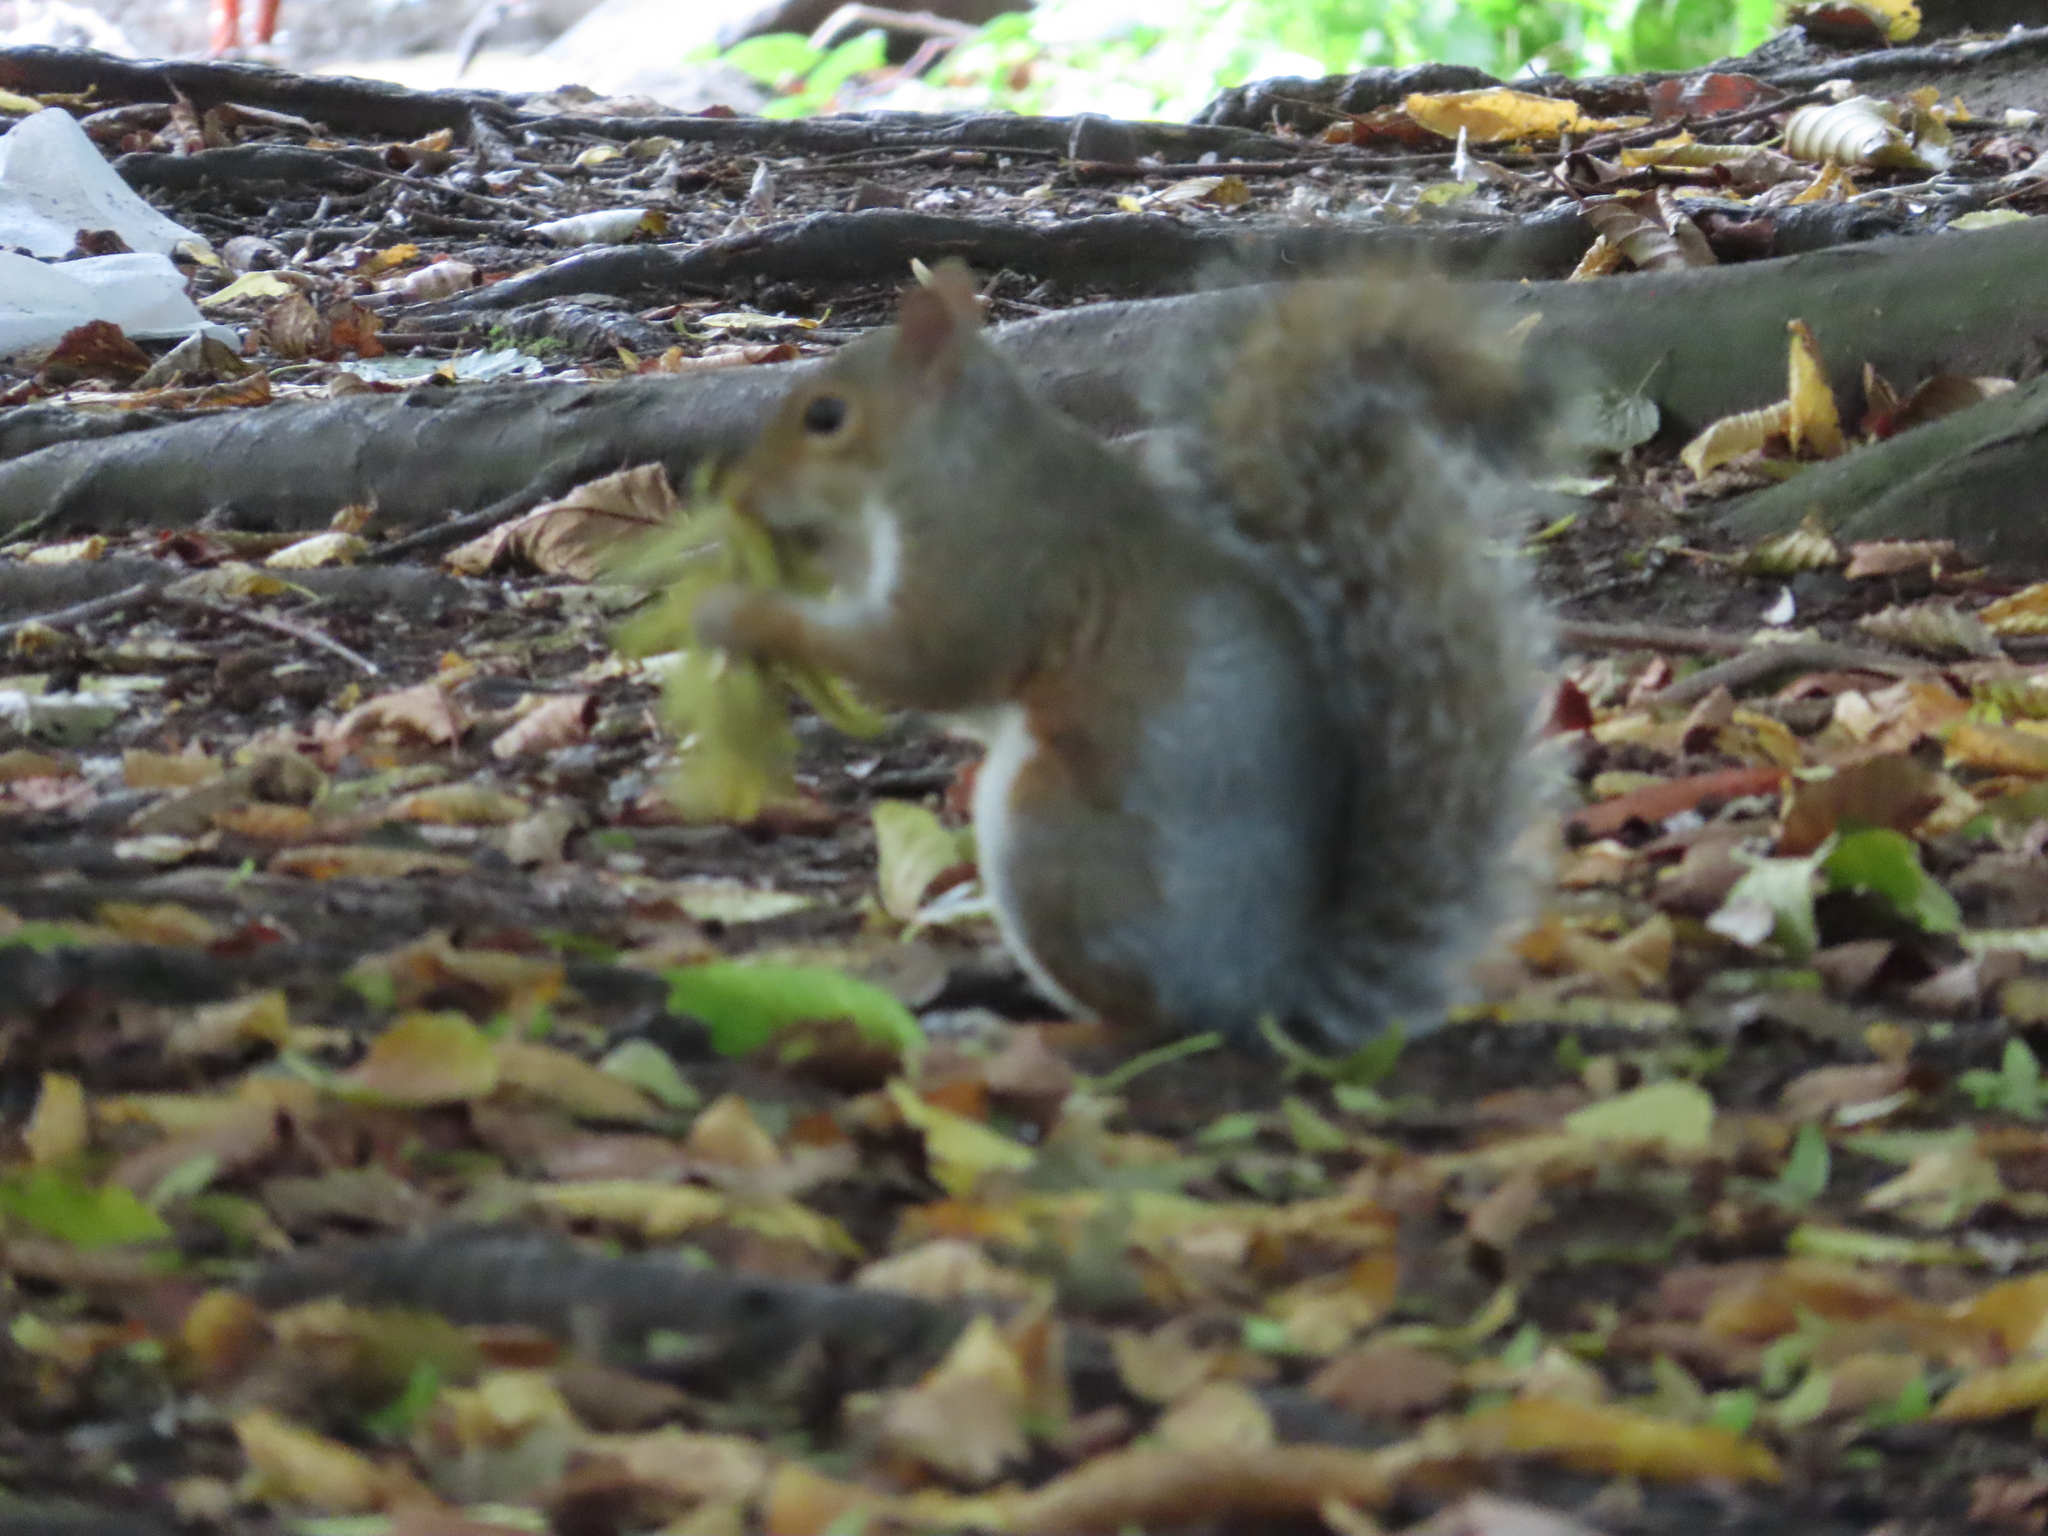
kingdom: Animalia
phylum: Chordata
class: Mammalia
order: Rodentia
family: Sciuridae
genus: Sciurus
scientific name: Sciurus carolinensis
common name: Eastern gray squirrel
